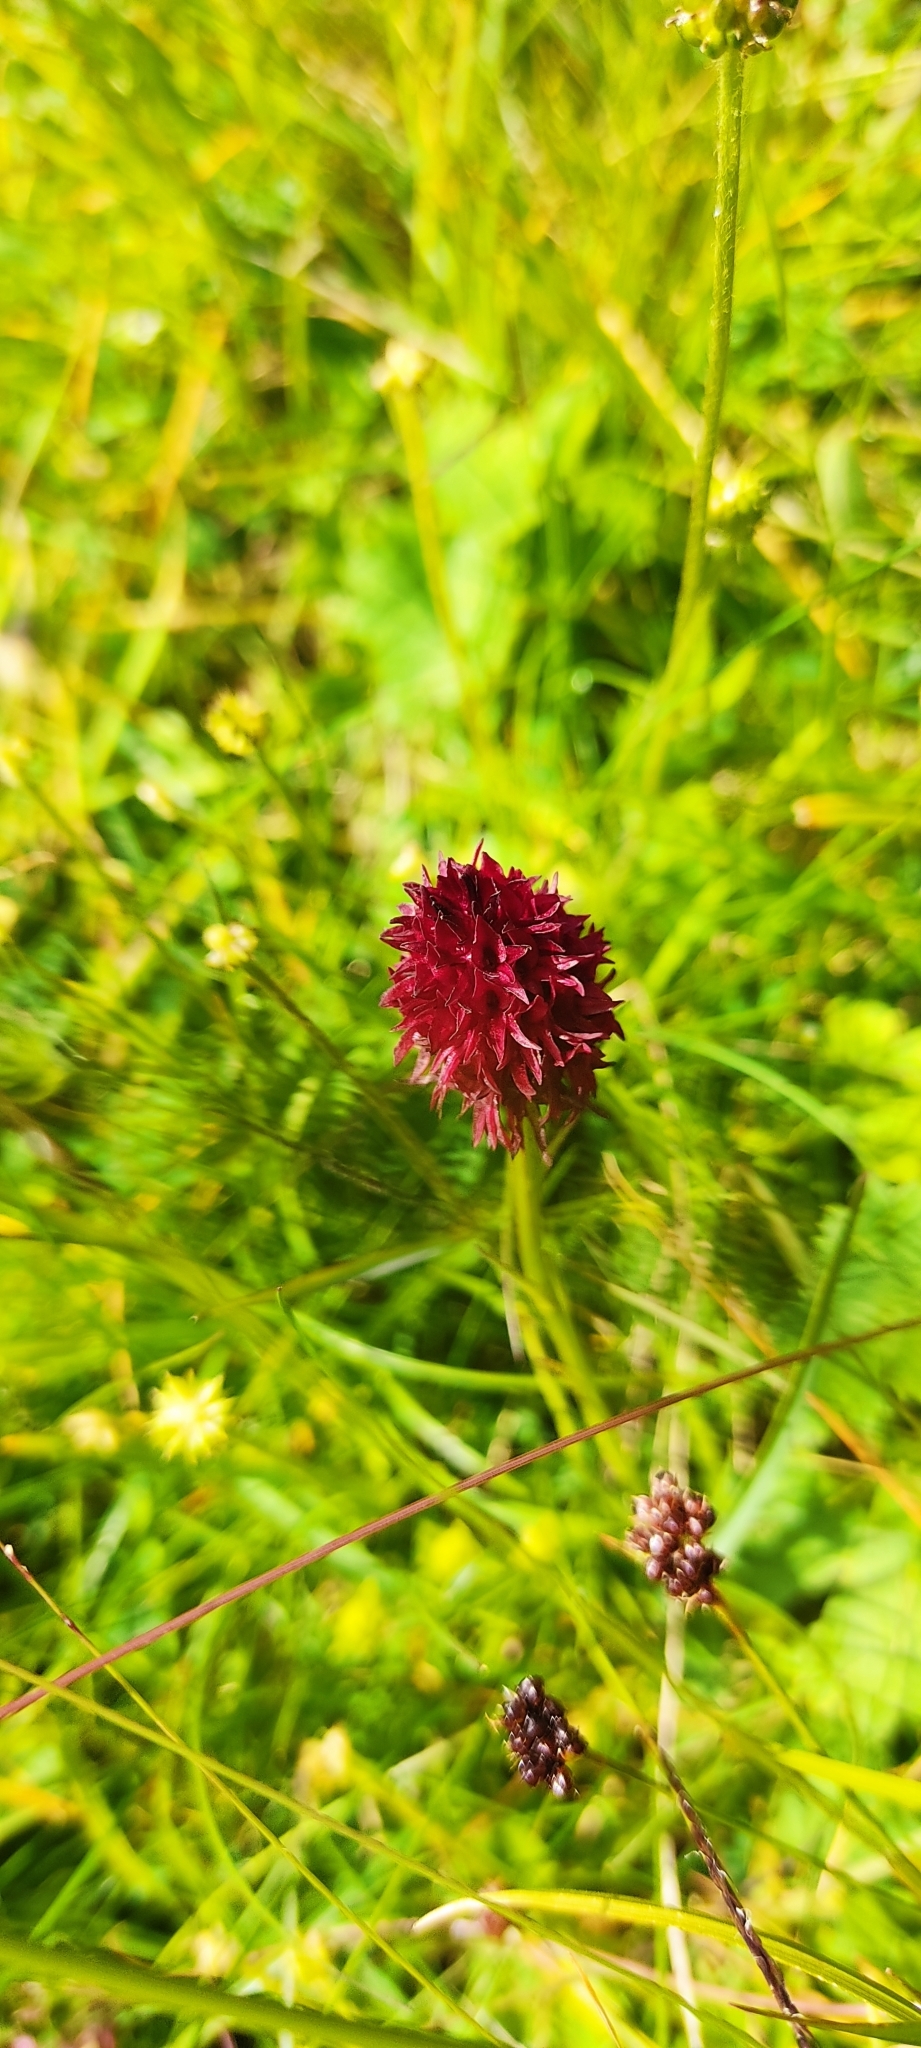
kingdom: Plantae
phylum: Tracheophyta
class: Liliopsida
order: Asparagales
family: Orchidaceae
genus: Gymnadenia
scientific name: Gymnadenia rhellicani
